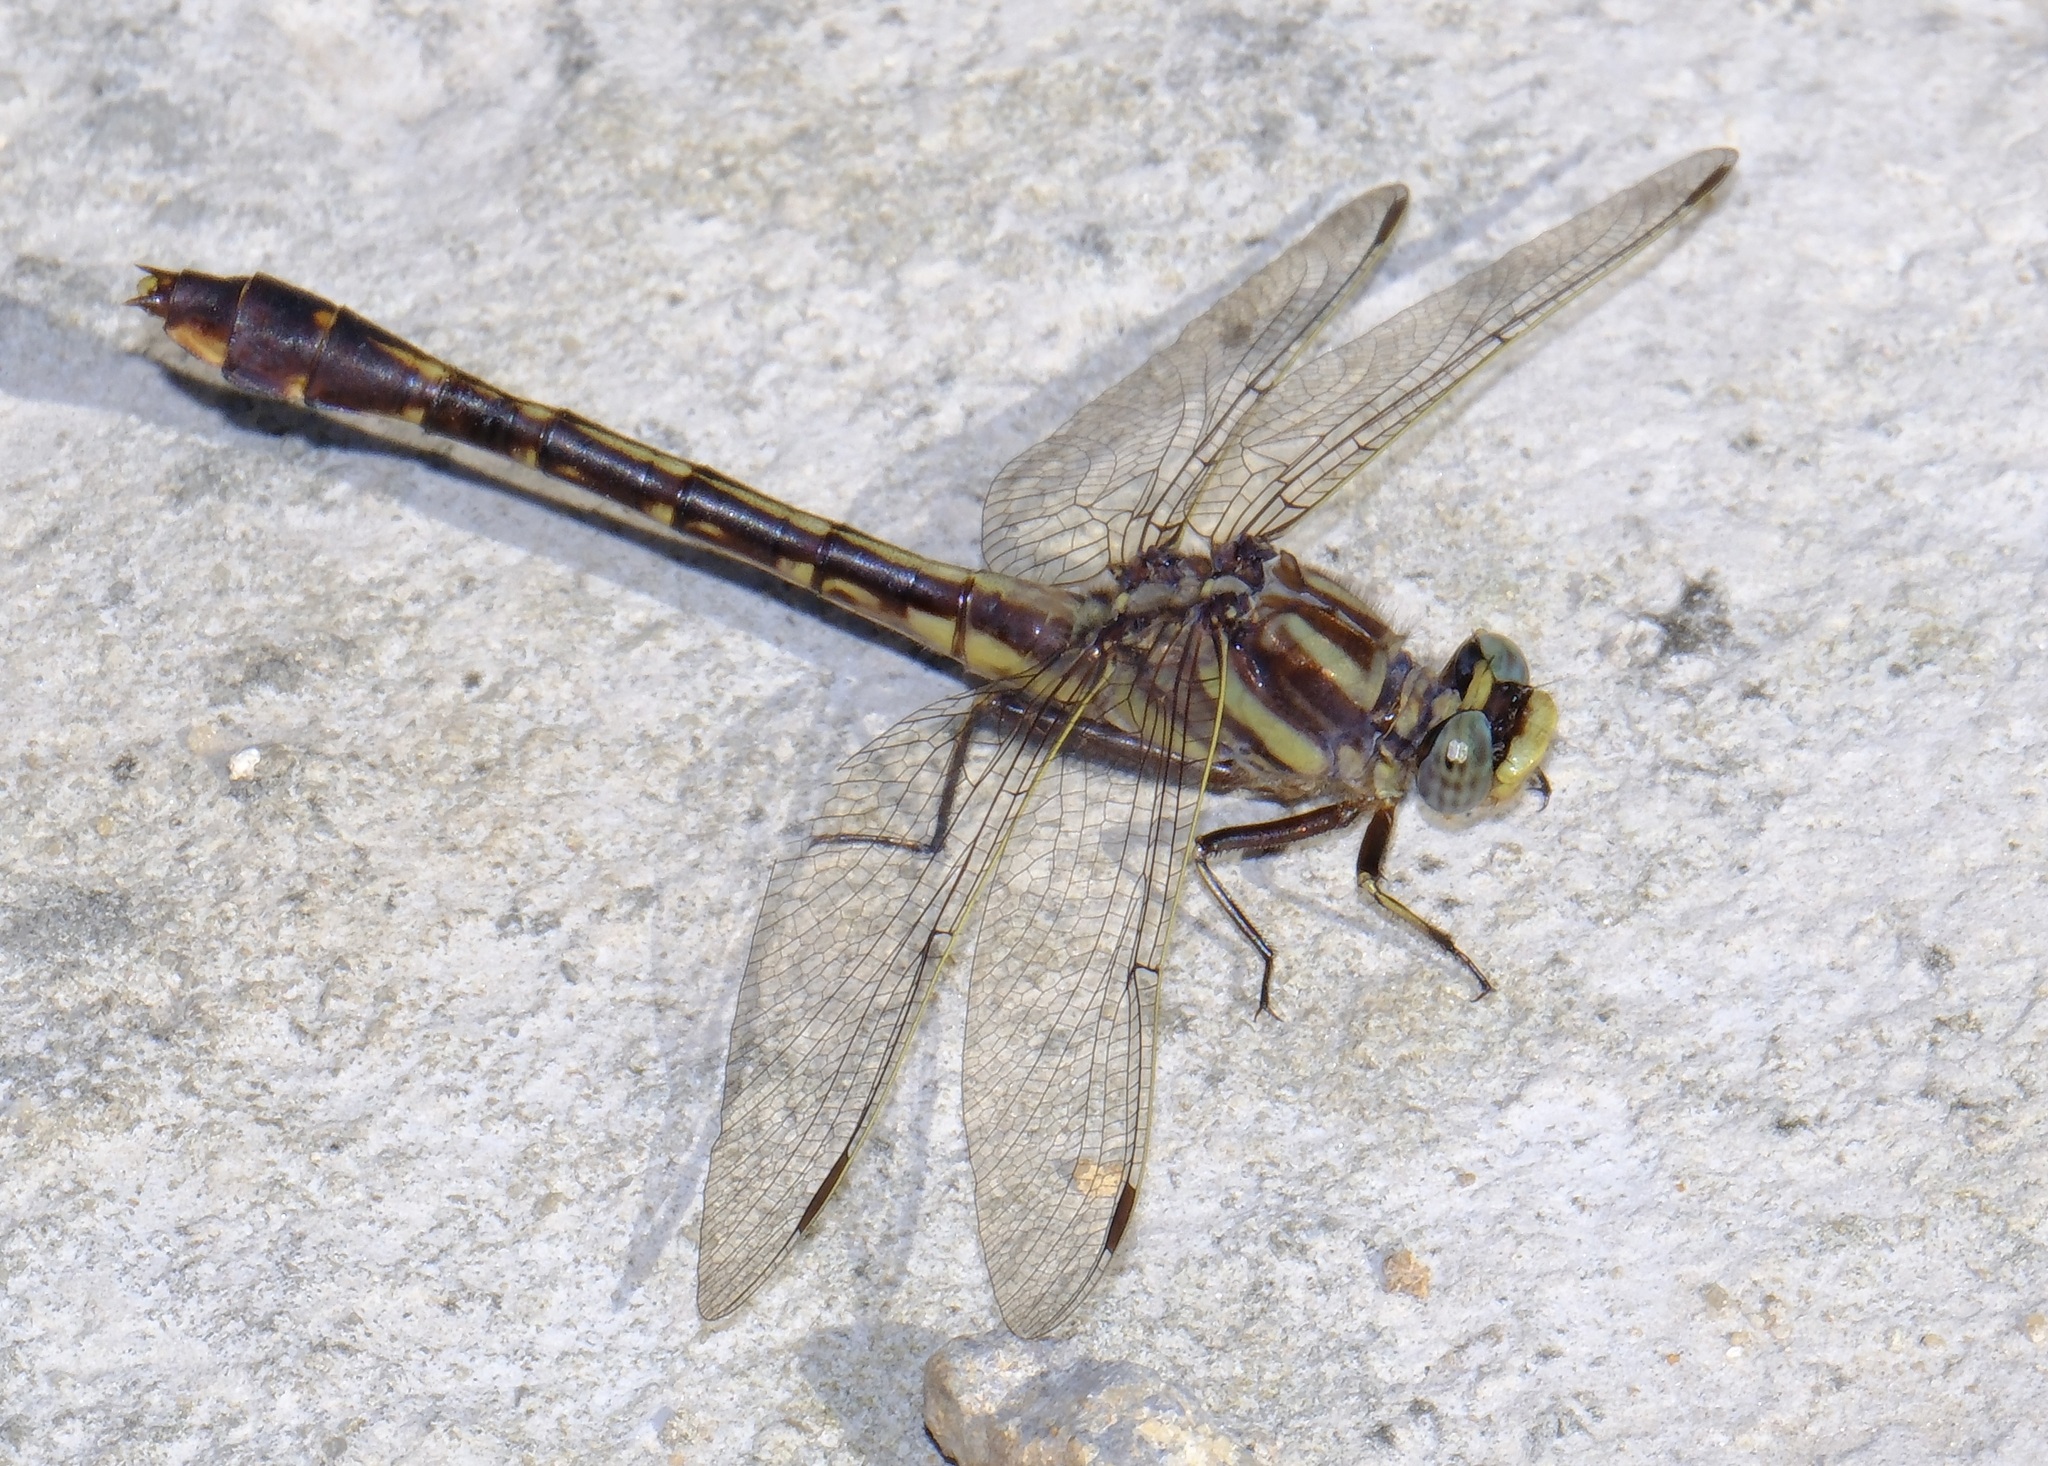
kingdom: Animalia
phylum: Arthropoda
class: Insecta
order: Odonata
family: Gomphidae
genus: Gomphurus
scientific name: Gomphurus hybridus
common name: Cocoa clubtail
